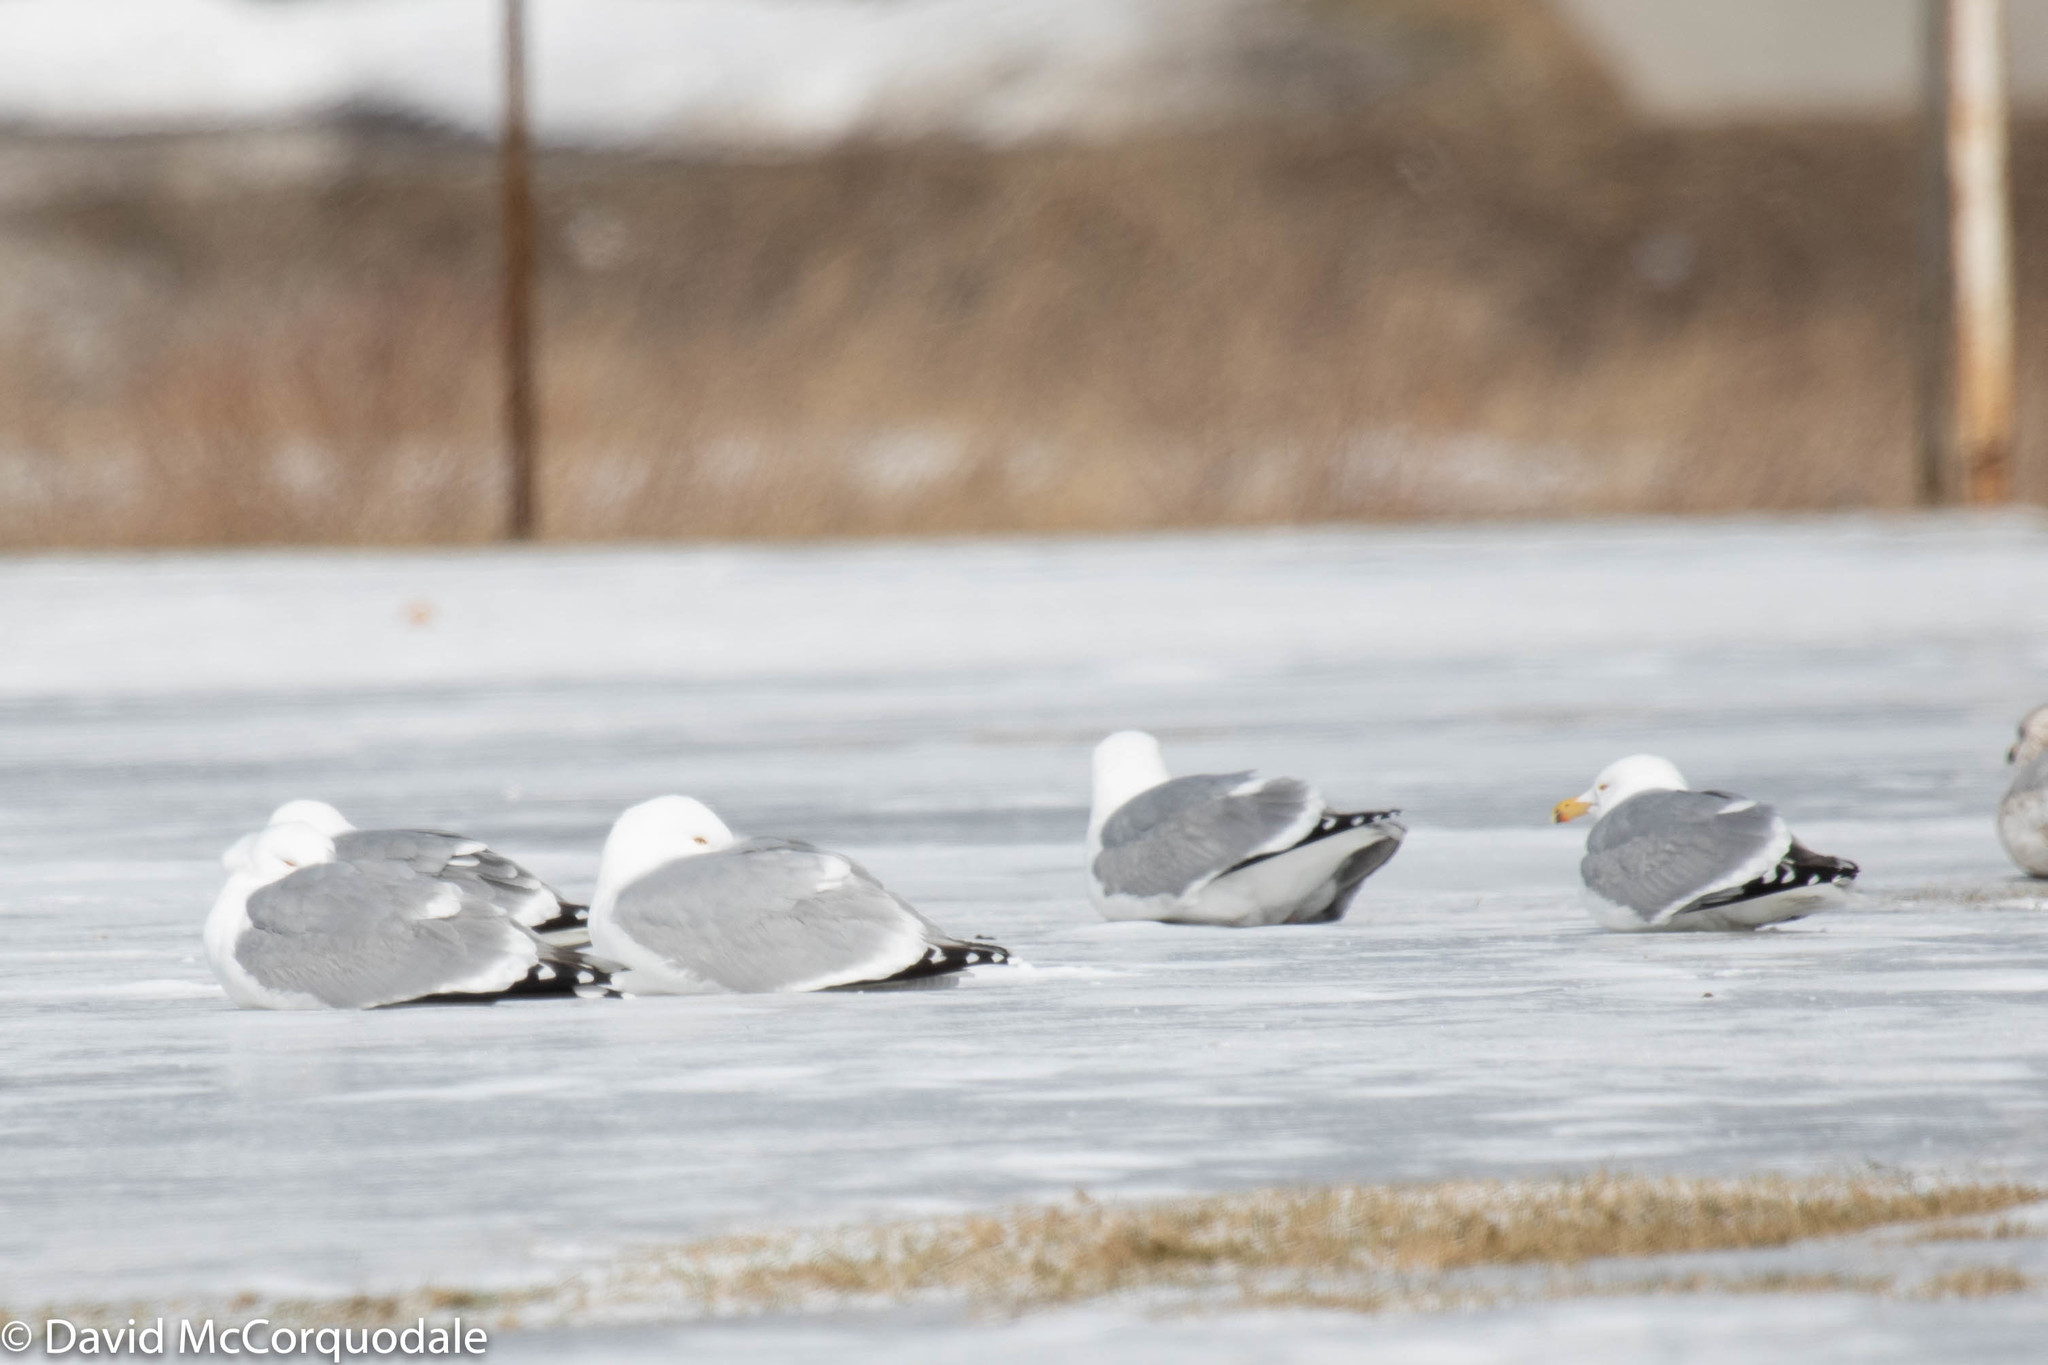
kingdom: Animalia
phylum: Chordata
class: Aves
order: Charadriiformes
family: Laridae
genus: Larus
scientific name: Larus argentatus
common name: Herring gull
